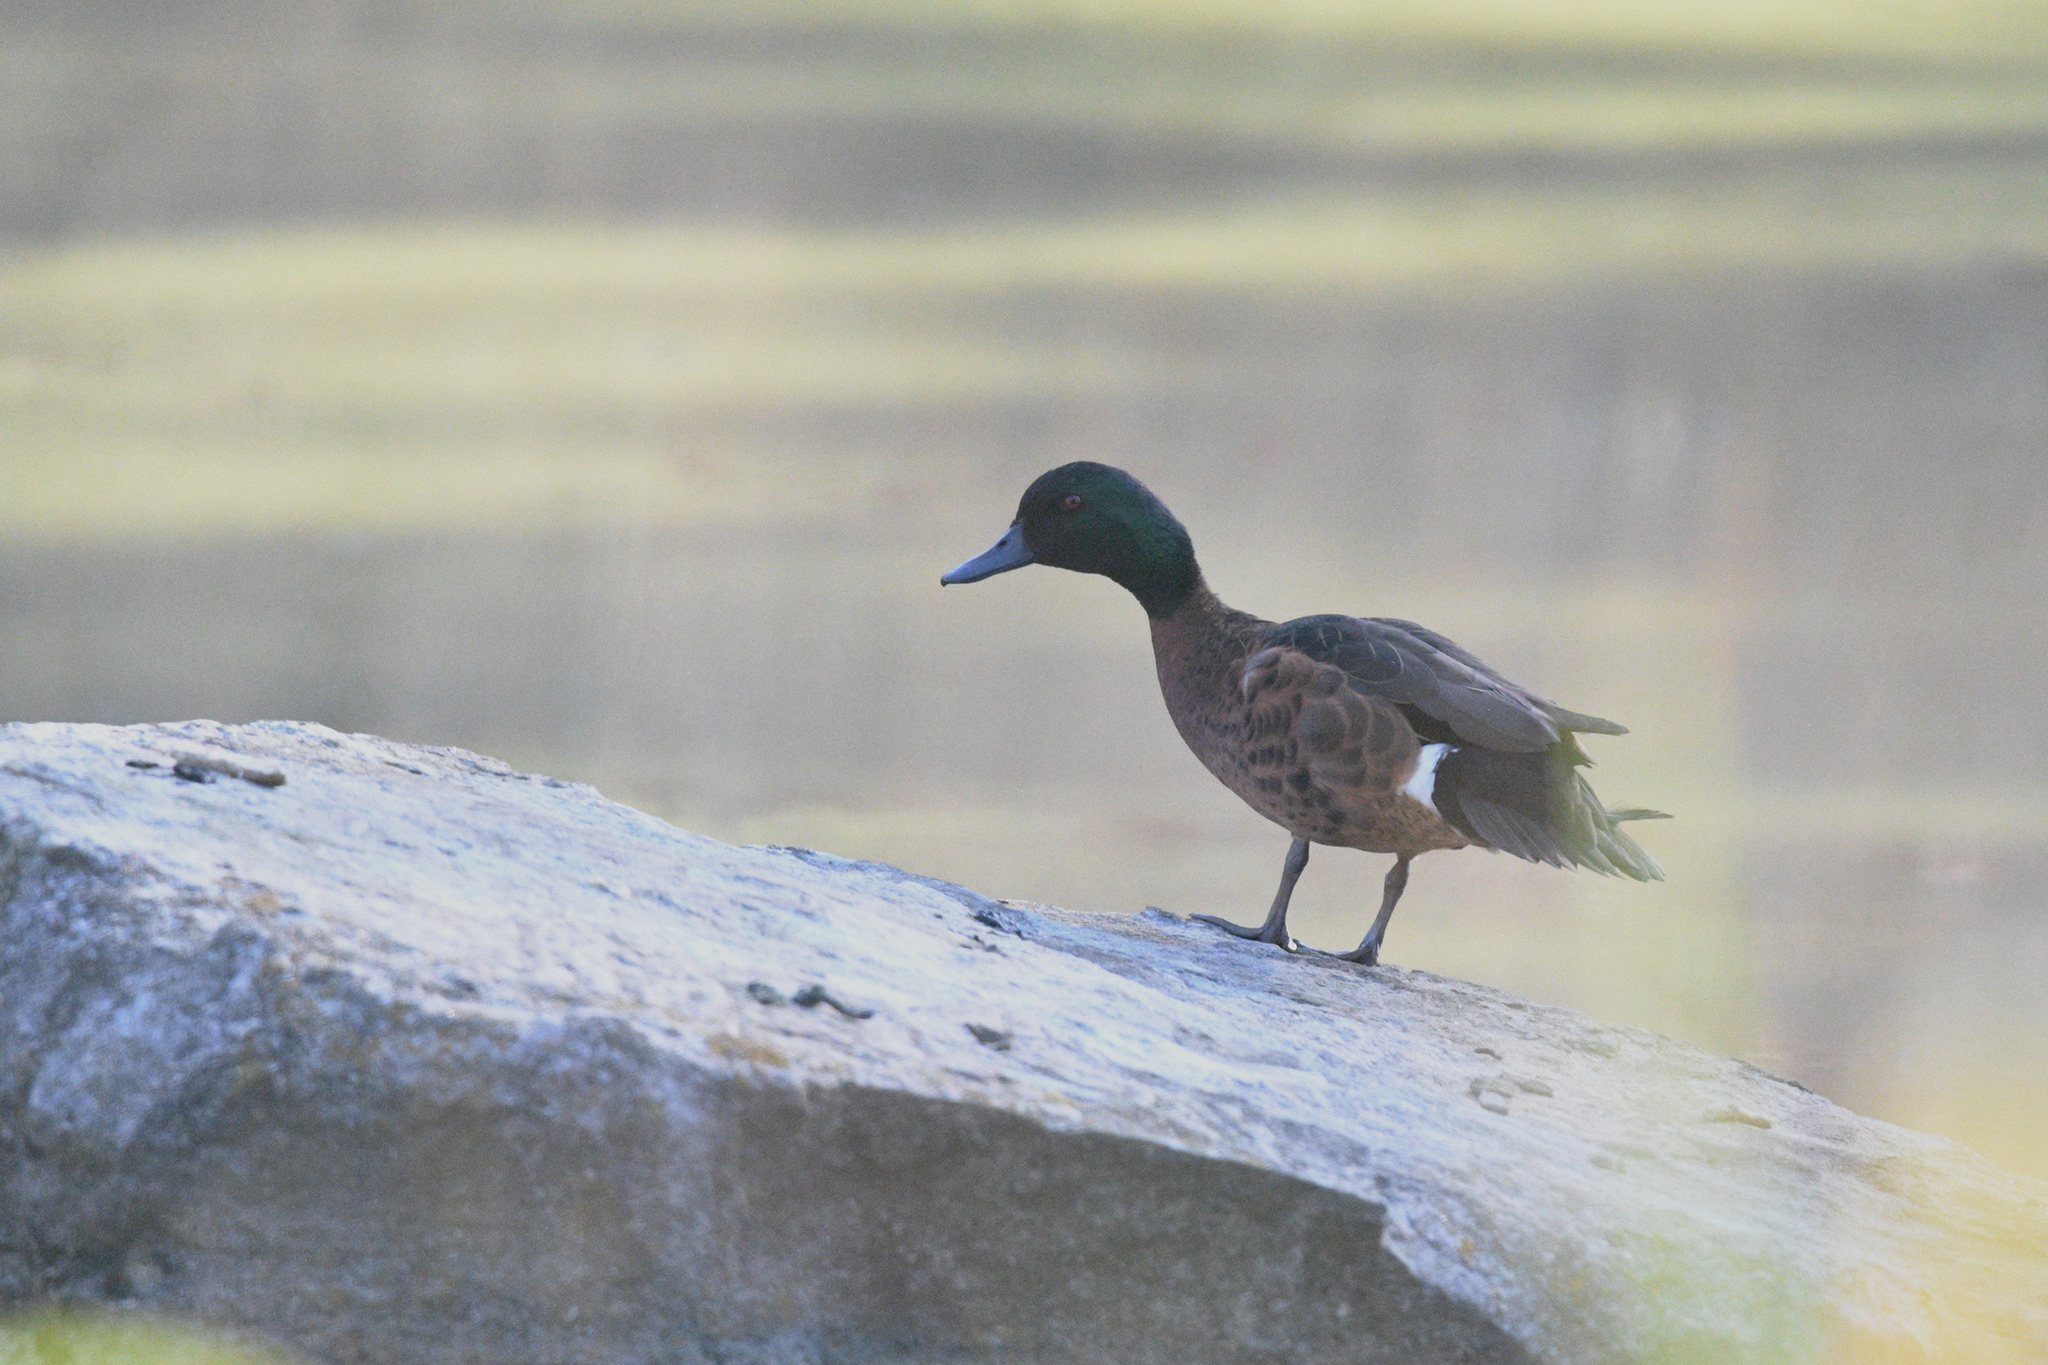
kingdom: Animalia
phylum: Chordata
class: Aves
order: Anseriformes
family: Anatidae
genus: Anas
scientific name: Anas castanea
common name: Chestnut teal
